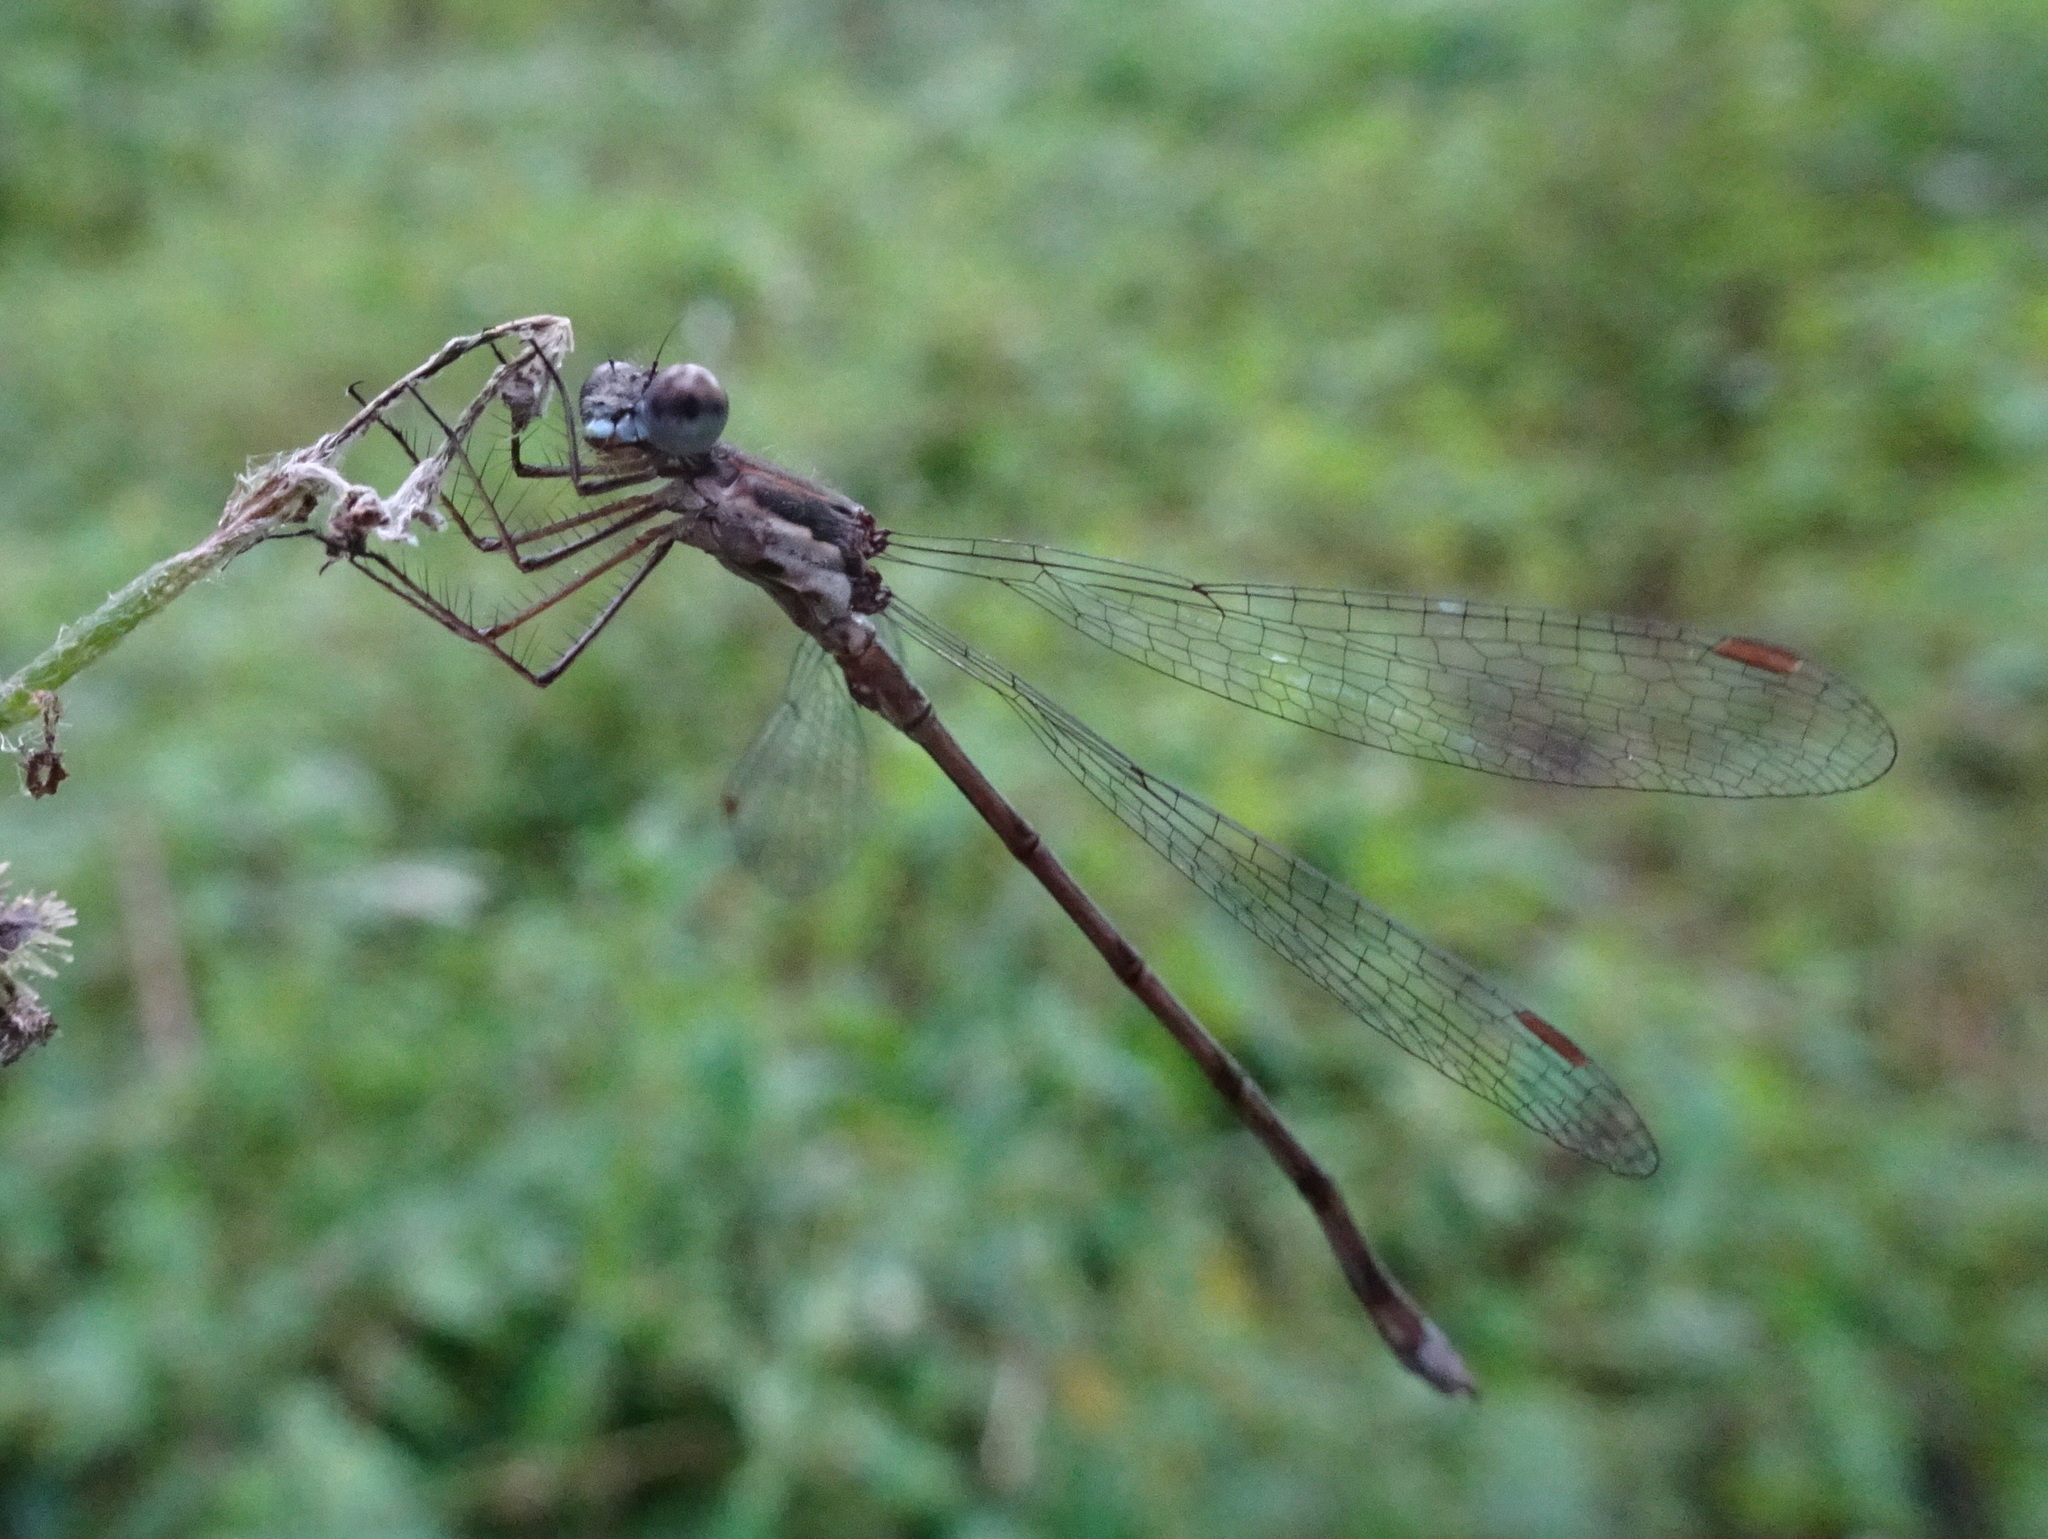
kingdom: Animalia
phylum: Arthropoda
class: Insecta
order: Odonata
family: Lestidae
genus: Lestes
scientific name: Lestes congener
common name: Spotted spreadwing
